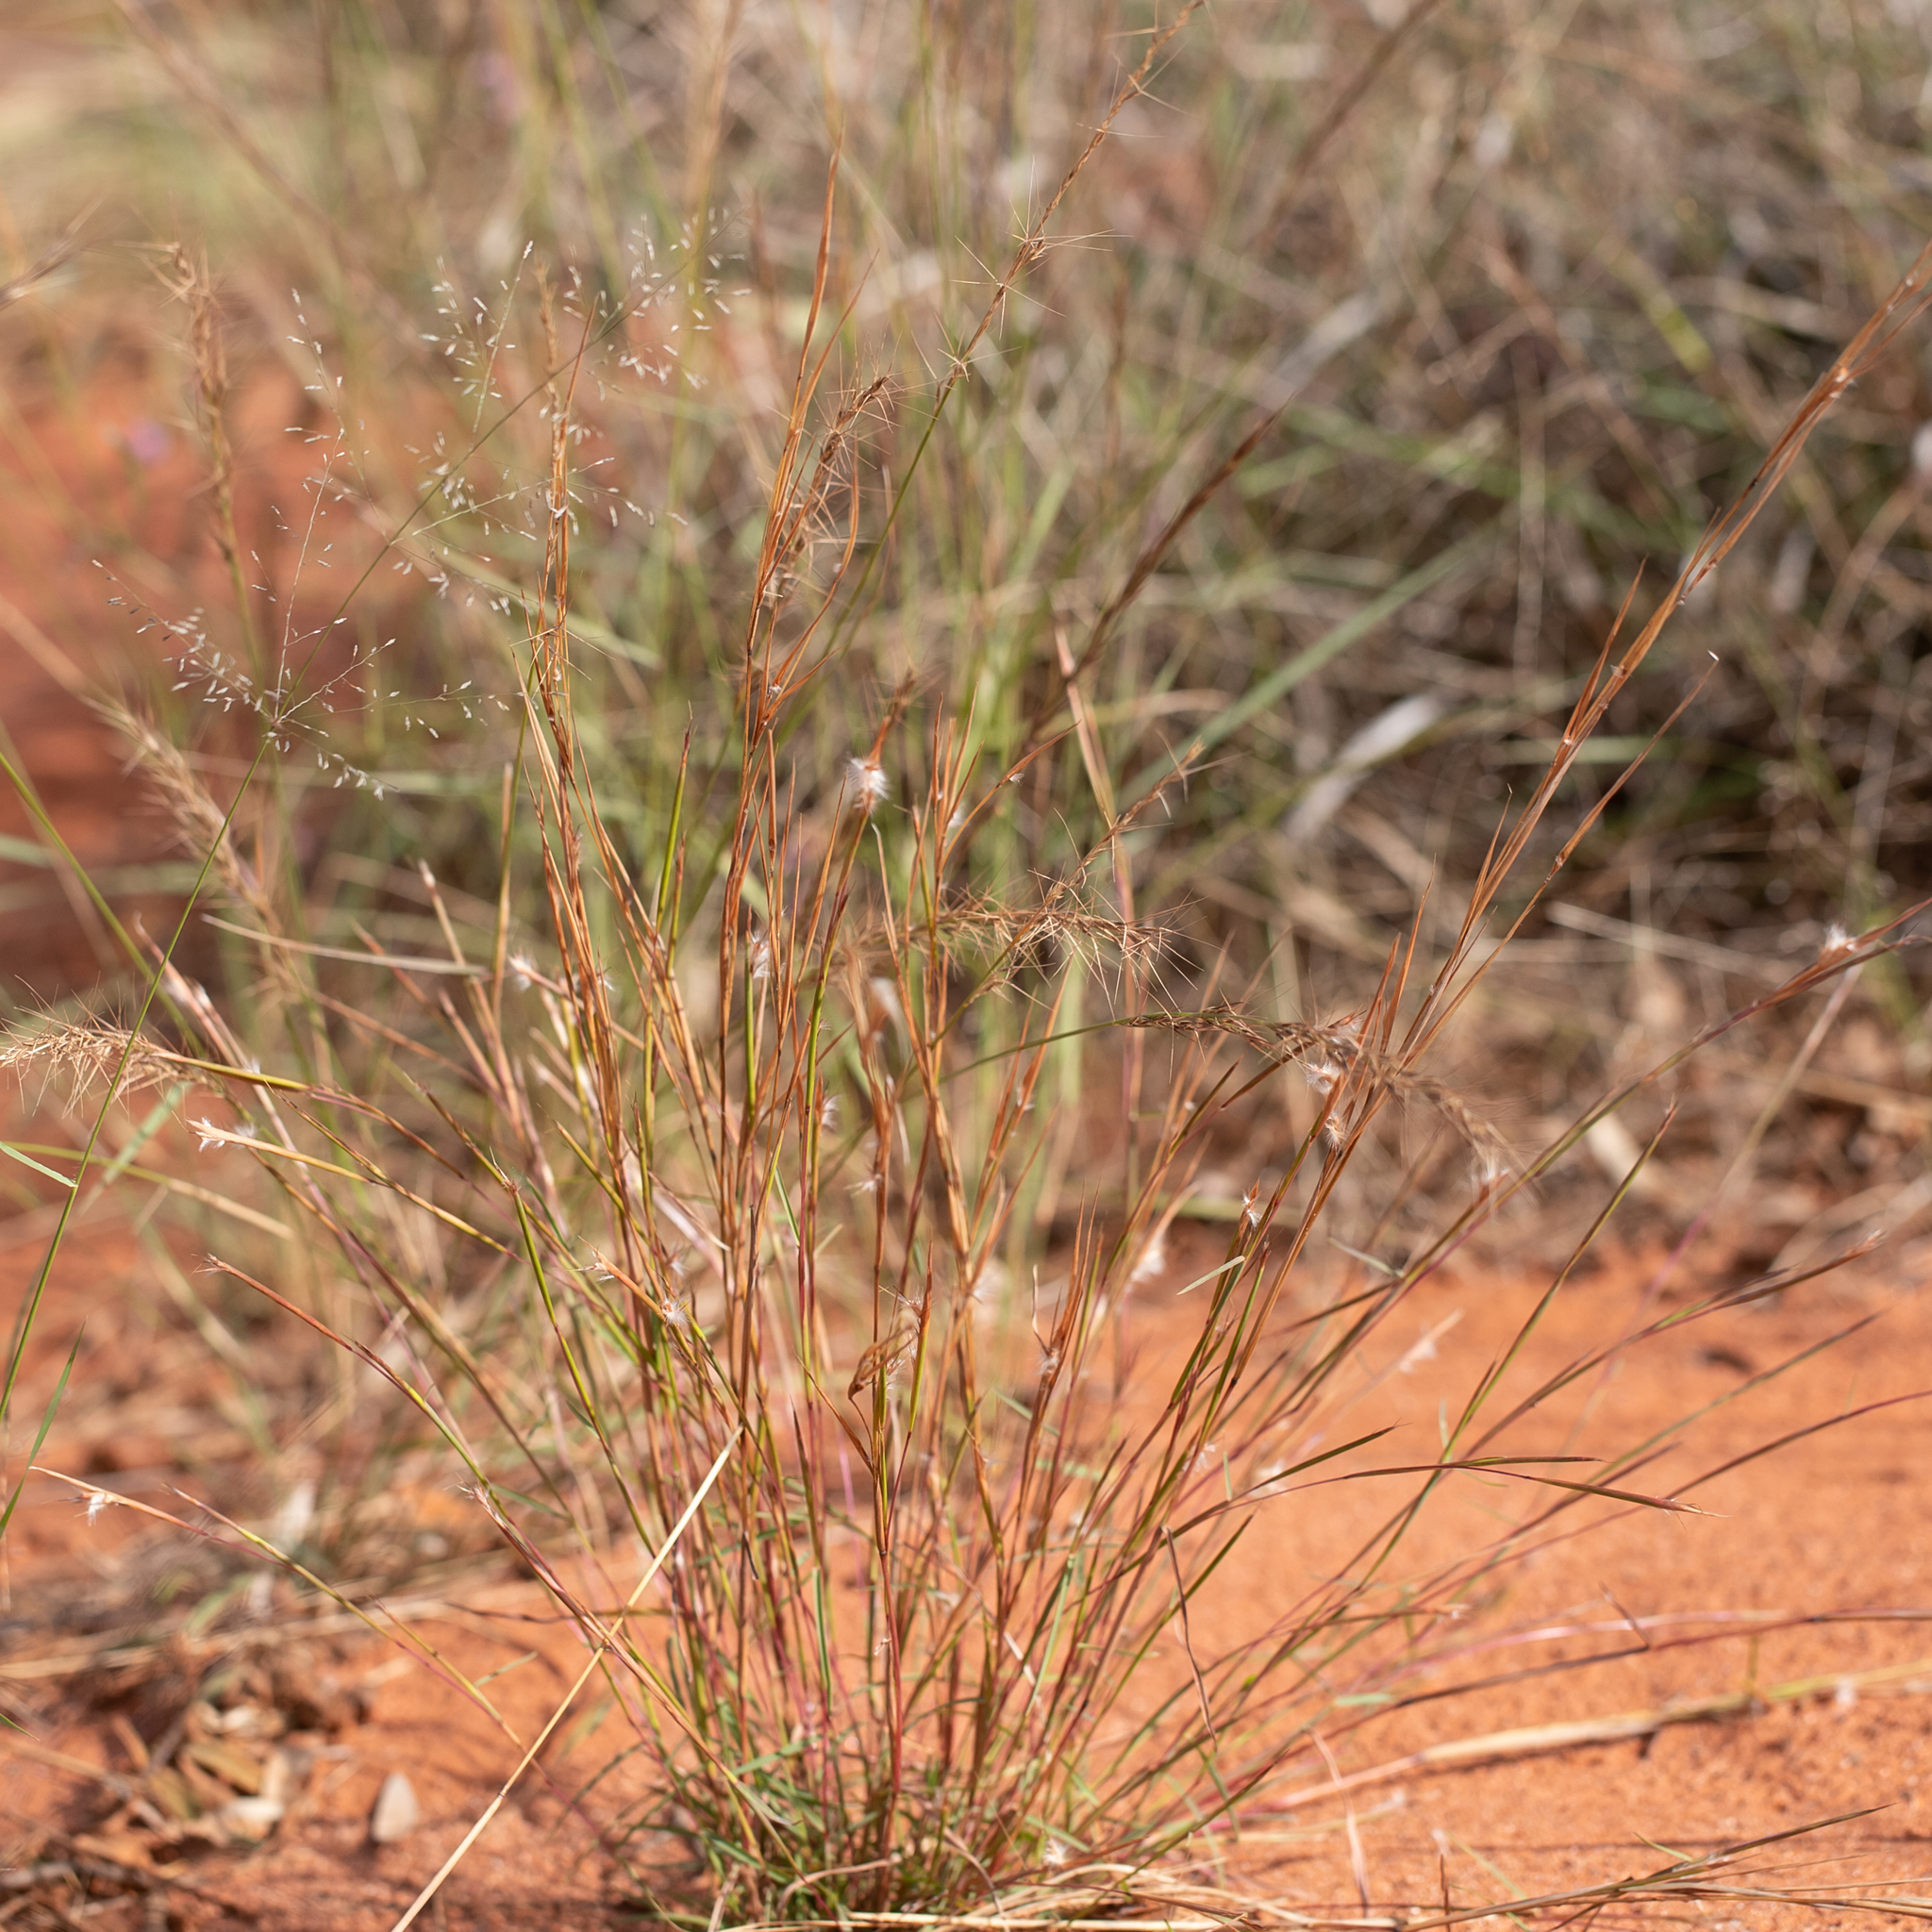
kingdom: Plantae
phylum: Tracheophyta
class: Liliopsida
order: Poales
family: Poaceae
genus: Schizachyrium
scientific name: Schizachyrium fragile
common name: Red spathe grass
